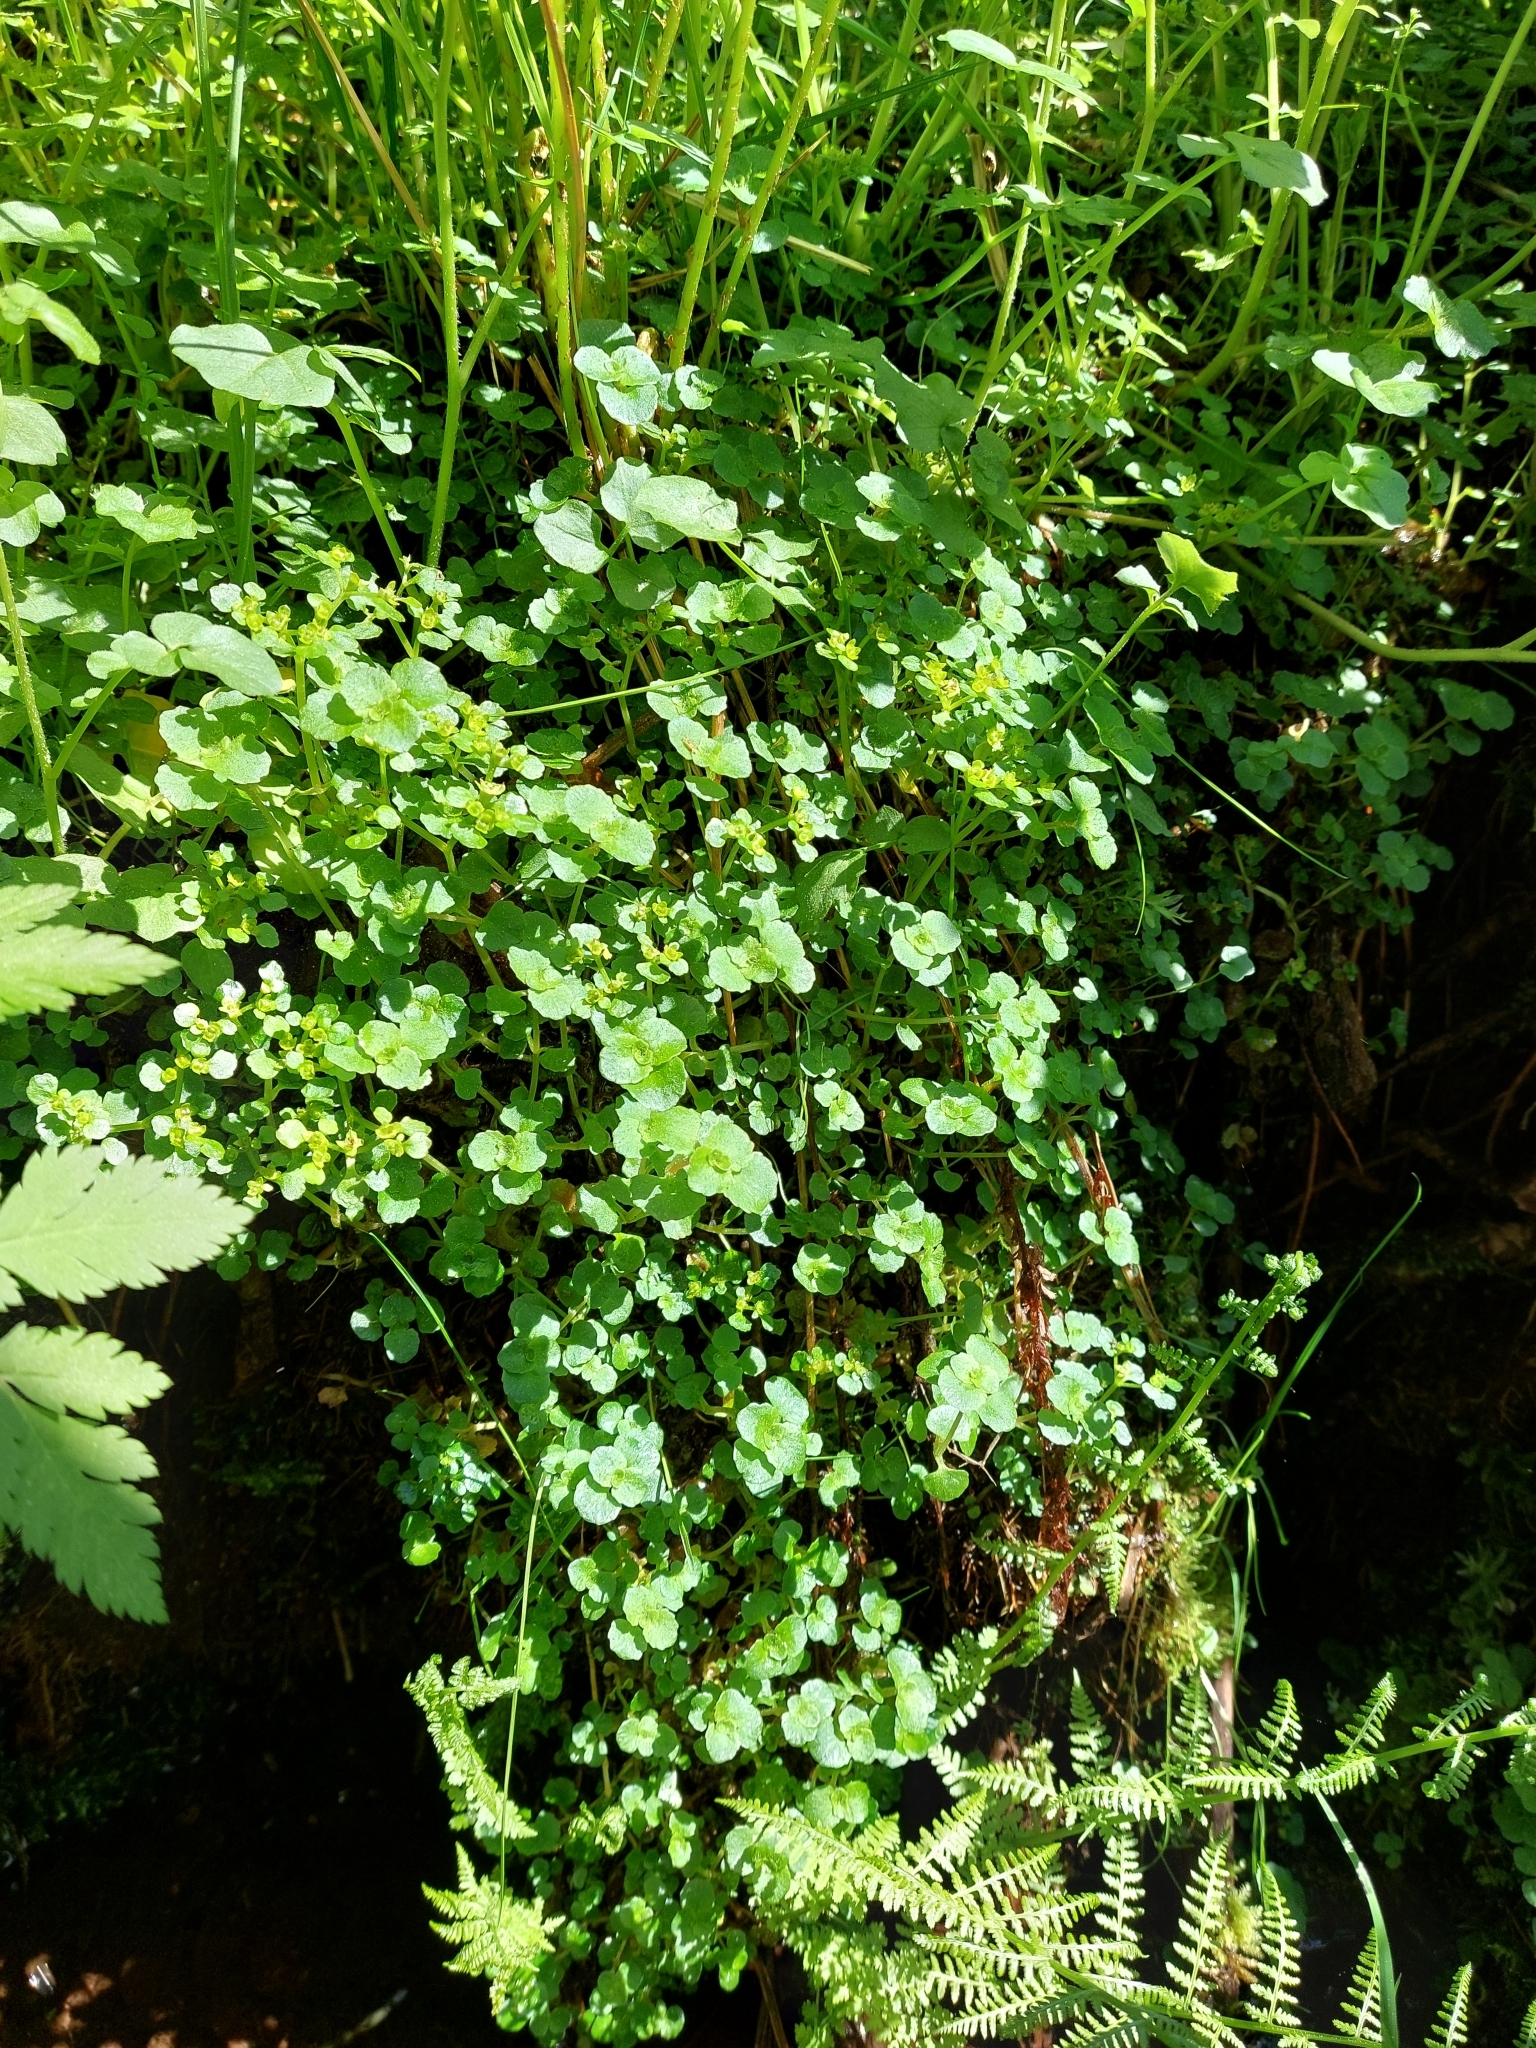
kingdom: Plantae
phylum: Tracheophyta
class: Magnoliopsida
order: Saxifragales
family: Saxifragaceae
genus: Chrysosplenium
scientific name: Chrysosplenium oppositifolium
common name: Opposite-leaved golden-saxifrage
